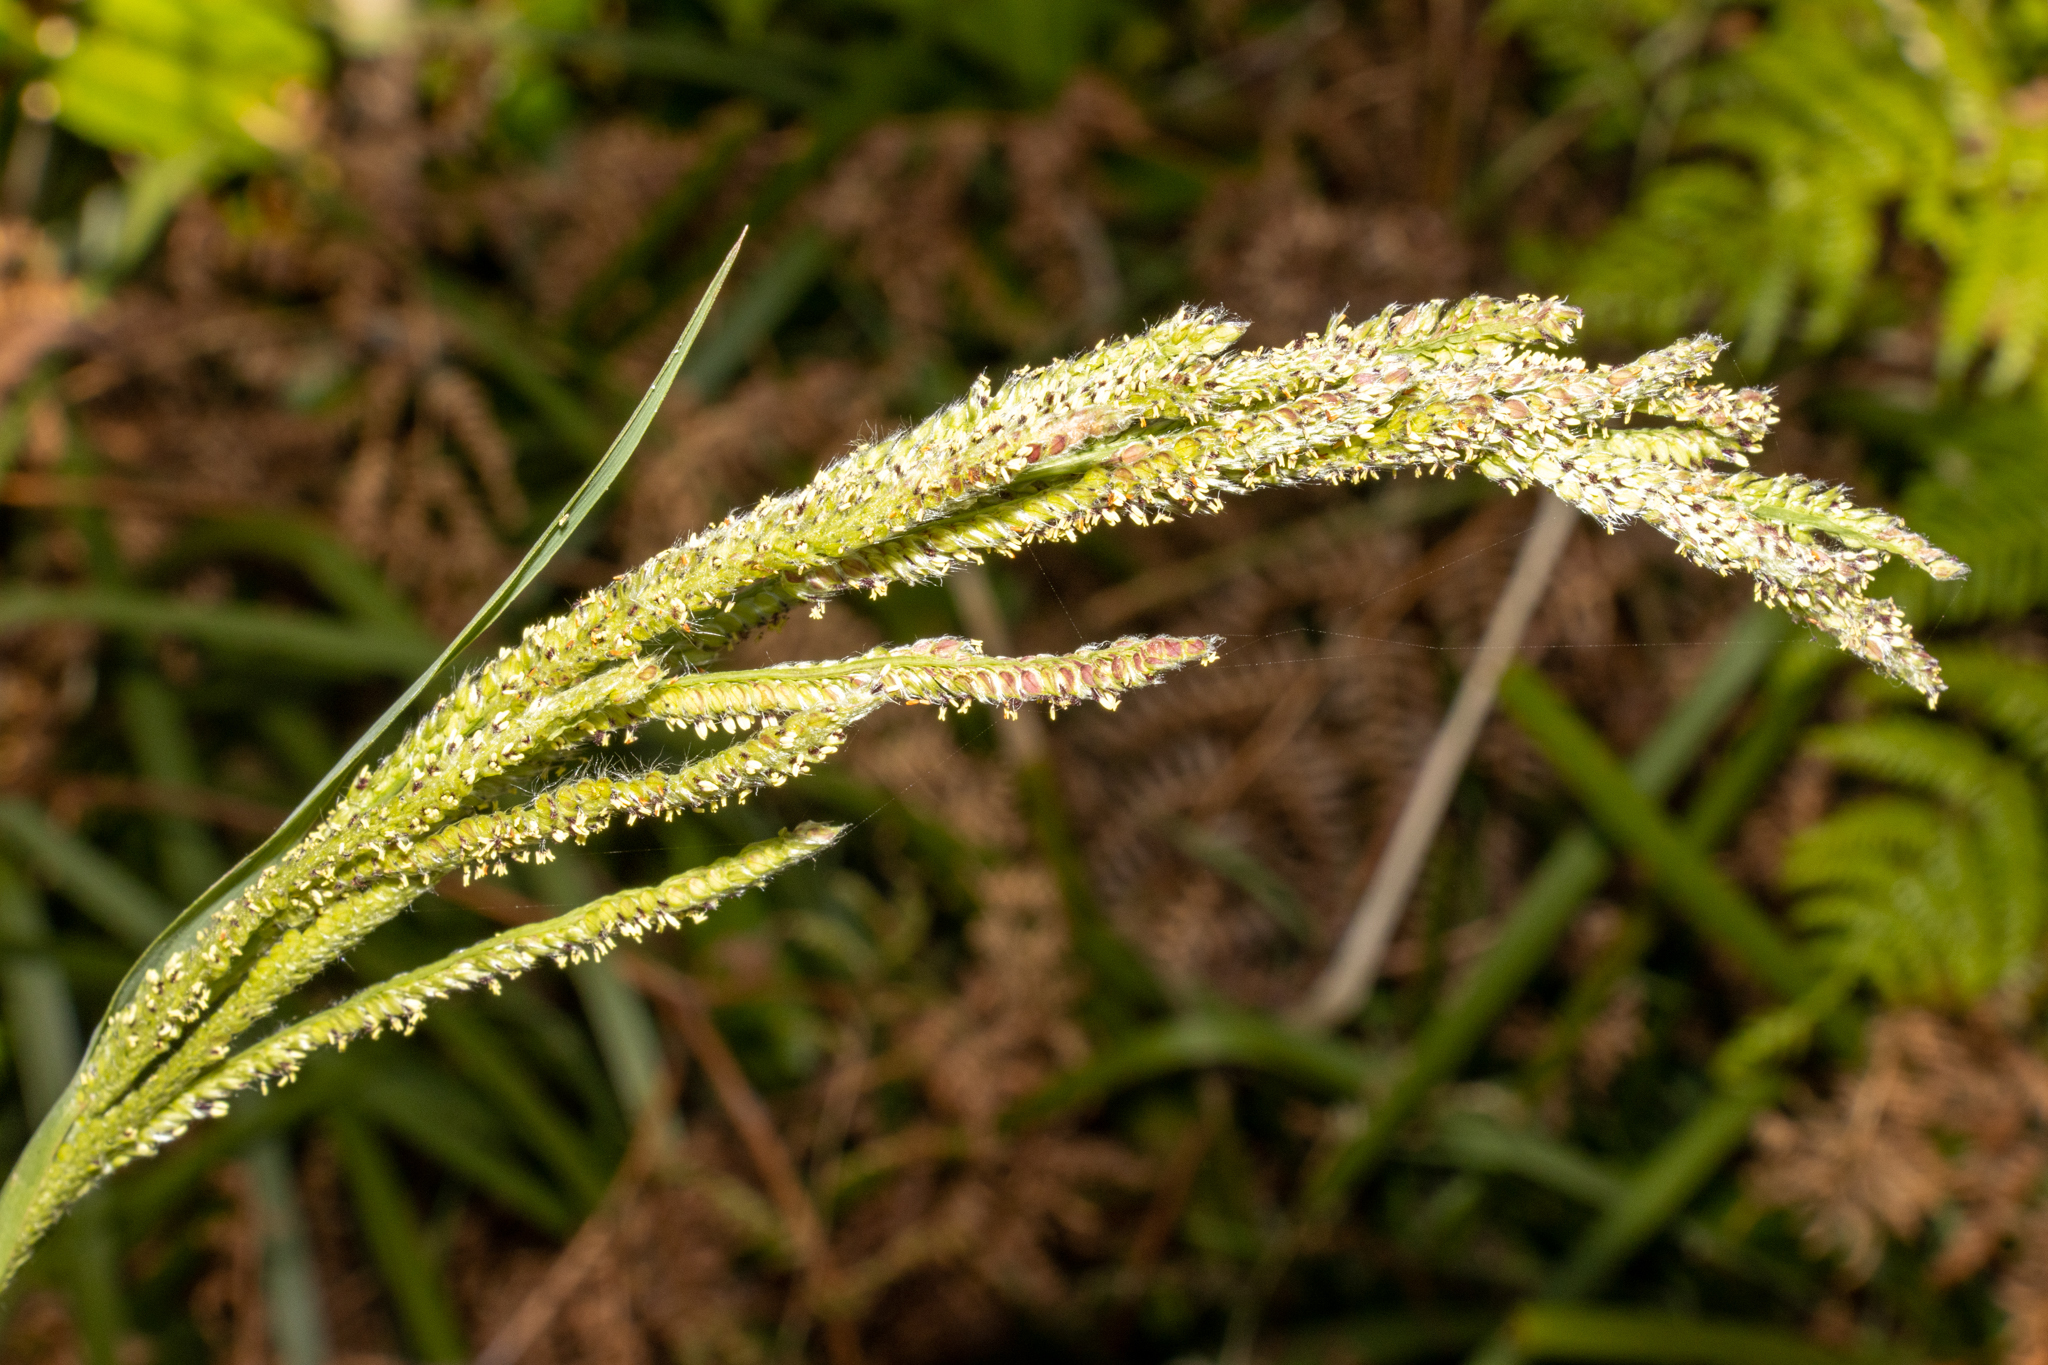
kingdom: Plantae
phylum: Tracheophyta
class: Liliopsida
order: Poales
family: Poaceae
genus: Paspalum
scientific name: Paspalum urvillei
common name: Vasey's grass
